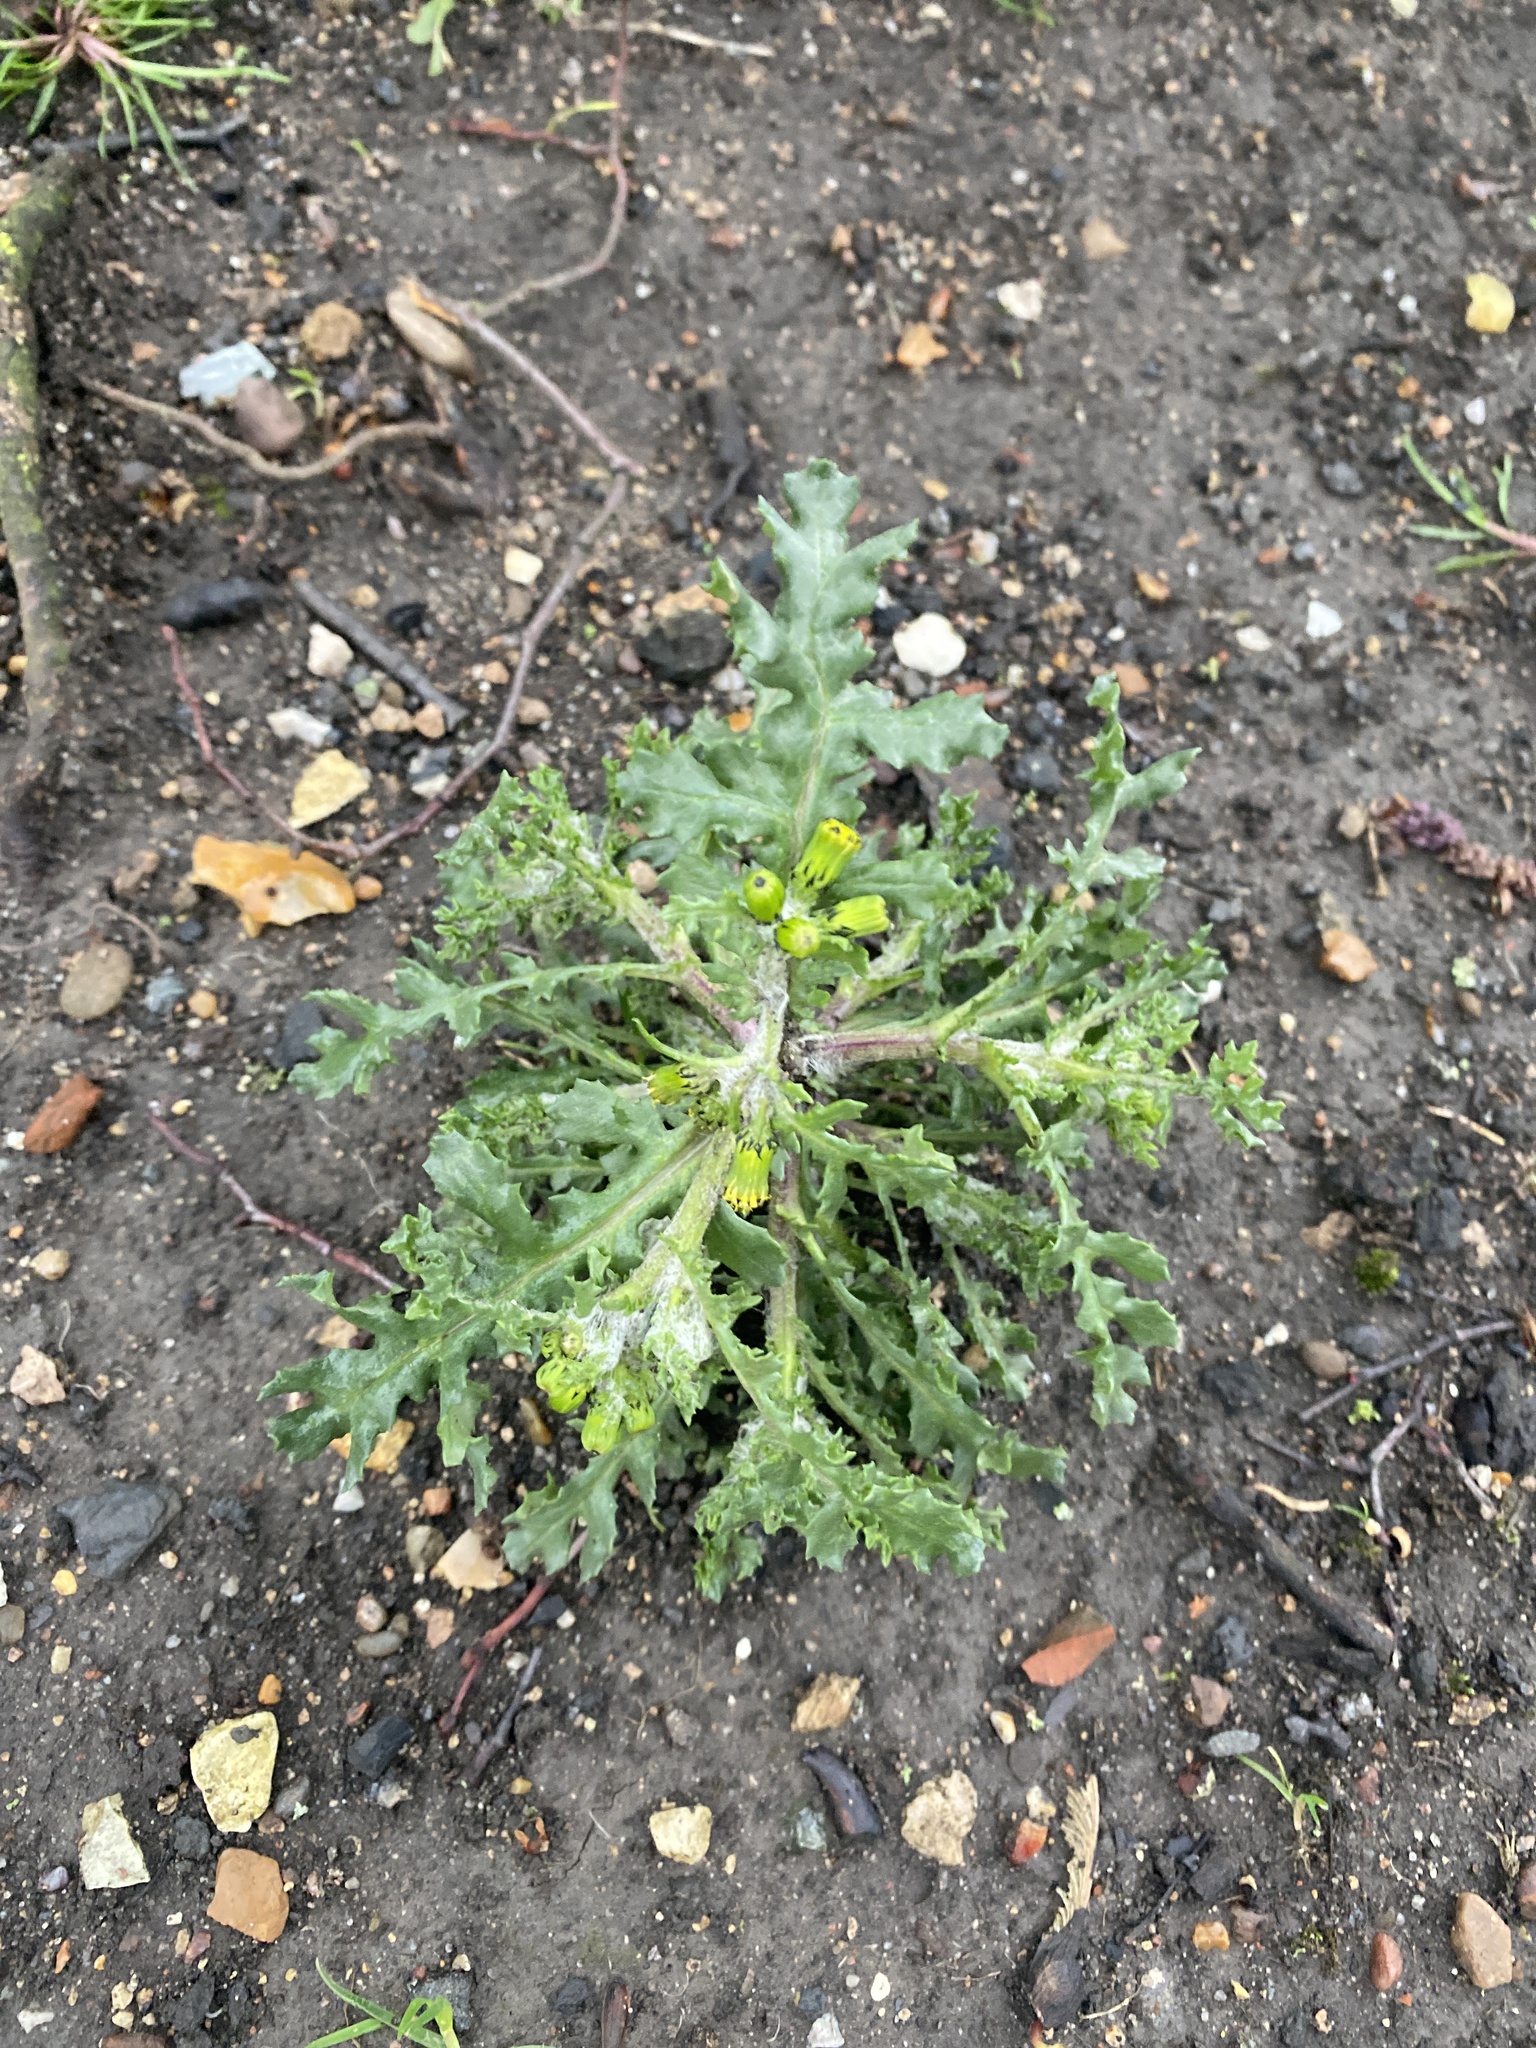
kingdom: Plantae
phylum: Tracheophyta
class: Magnoliopsida
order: Asterales
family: Asteraceae
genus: Senecio
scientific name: Senecio vulgaris
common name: Old-man-in-the-spring
